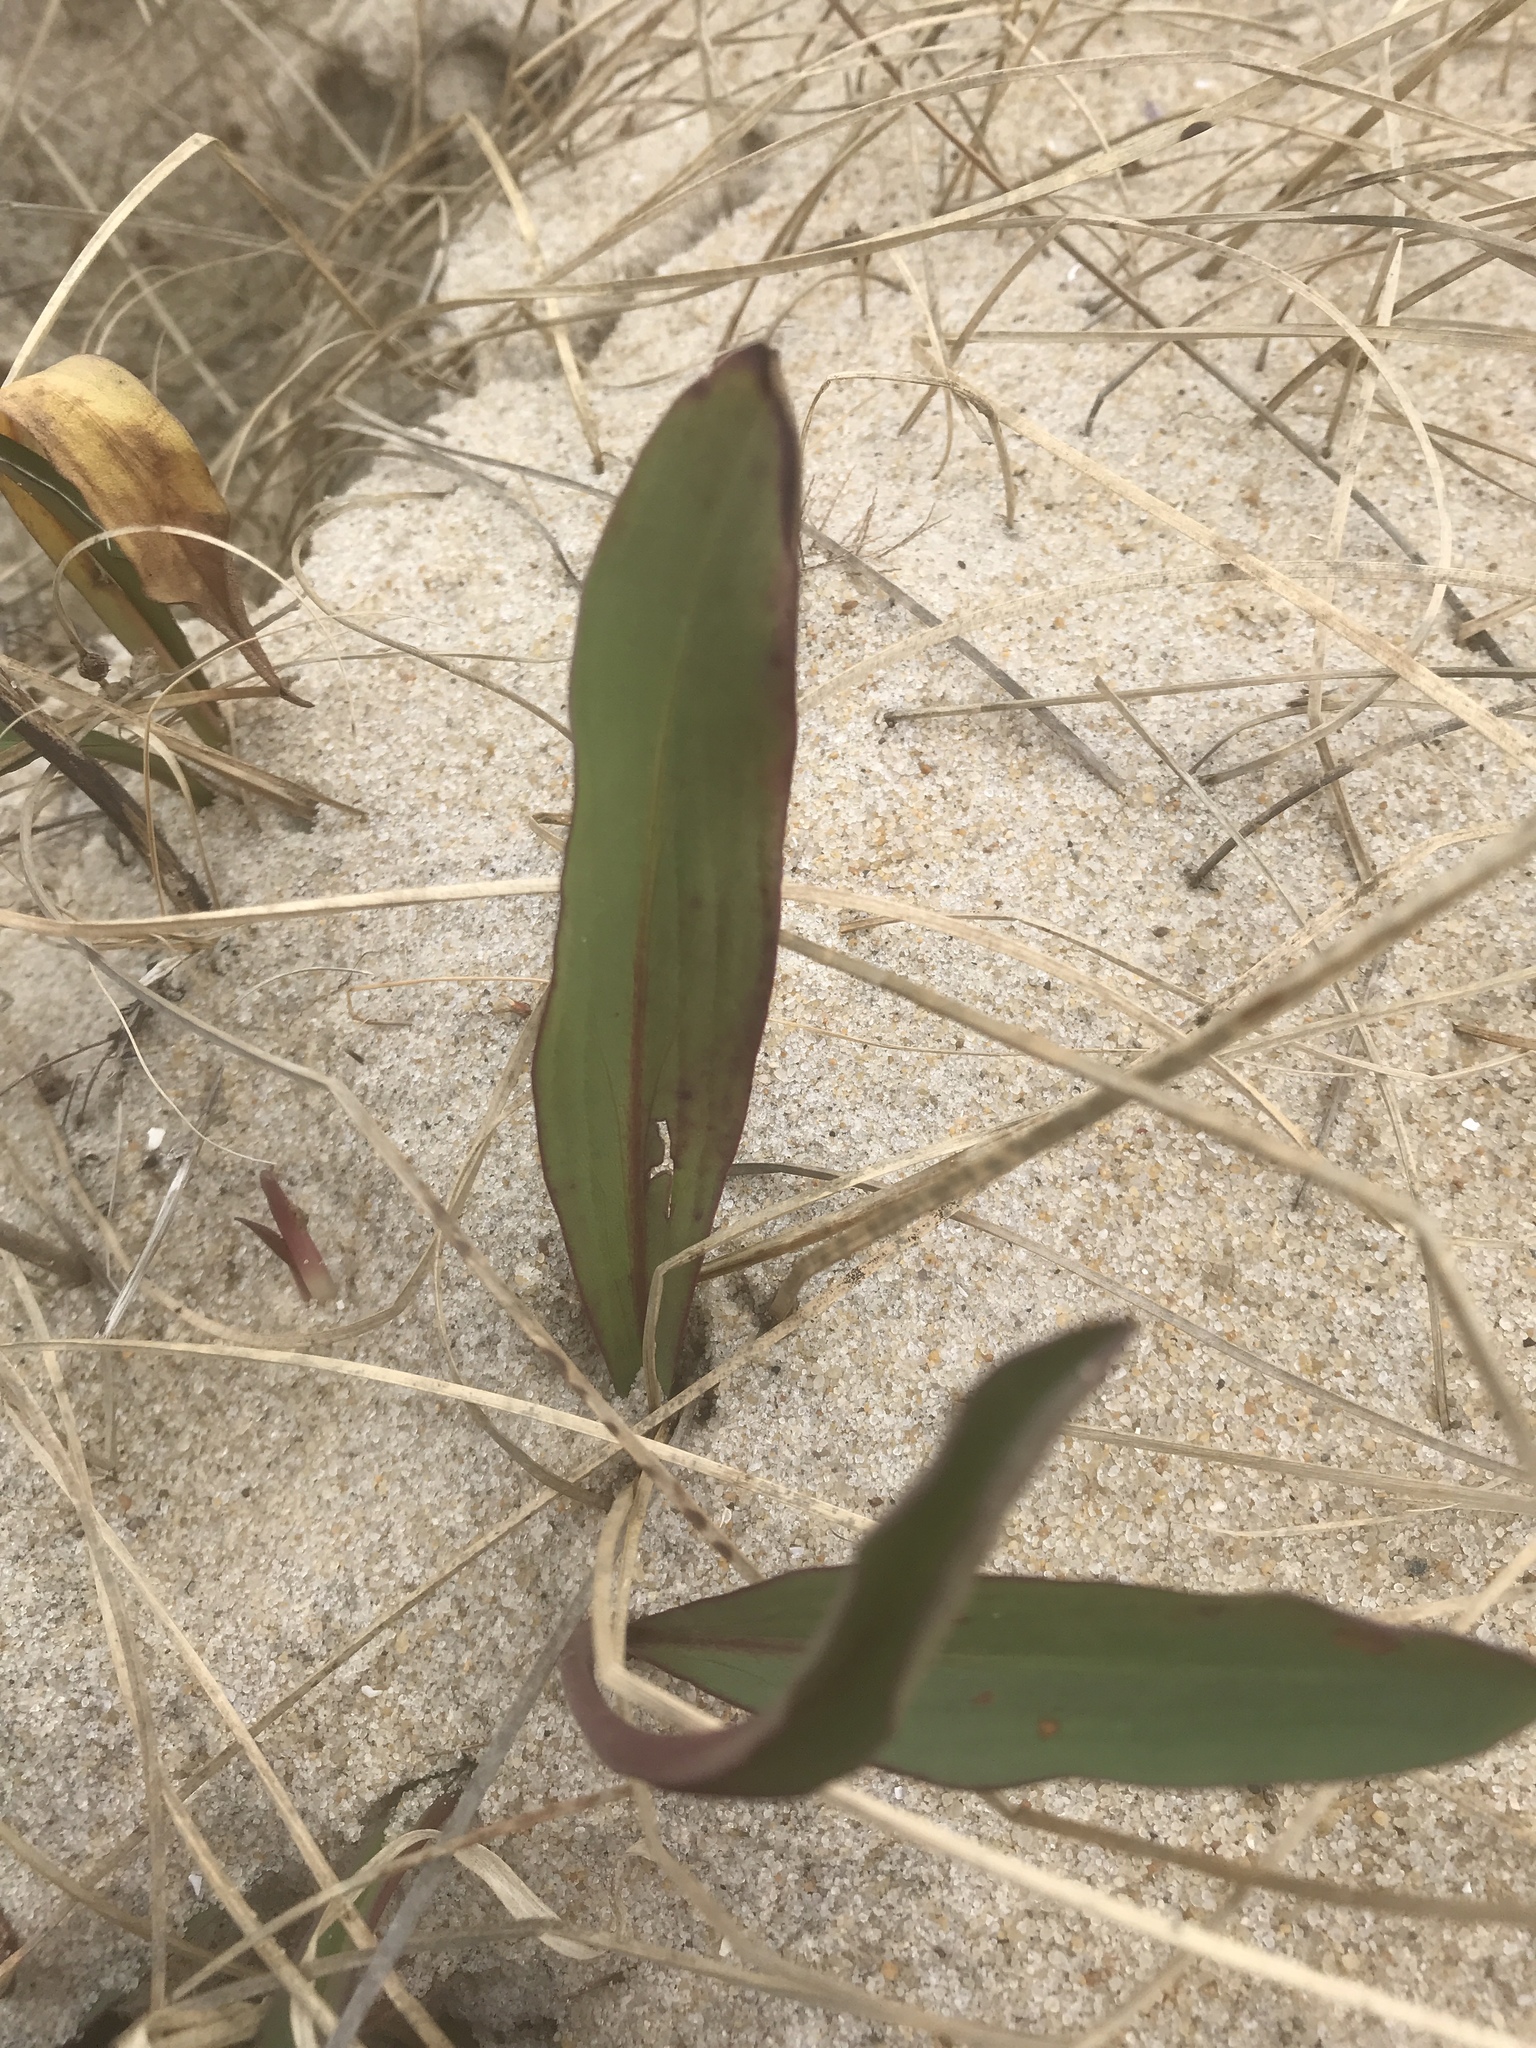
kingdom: Plantae
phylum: Tracheophyta
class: Magnoliopsida
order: Asterales
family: Asteraceae
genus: Solidago
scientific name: Solidago mexicana
